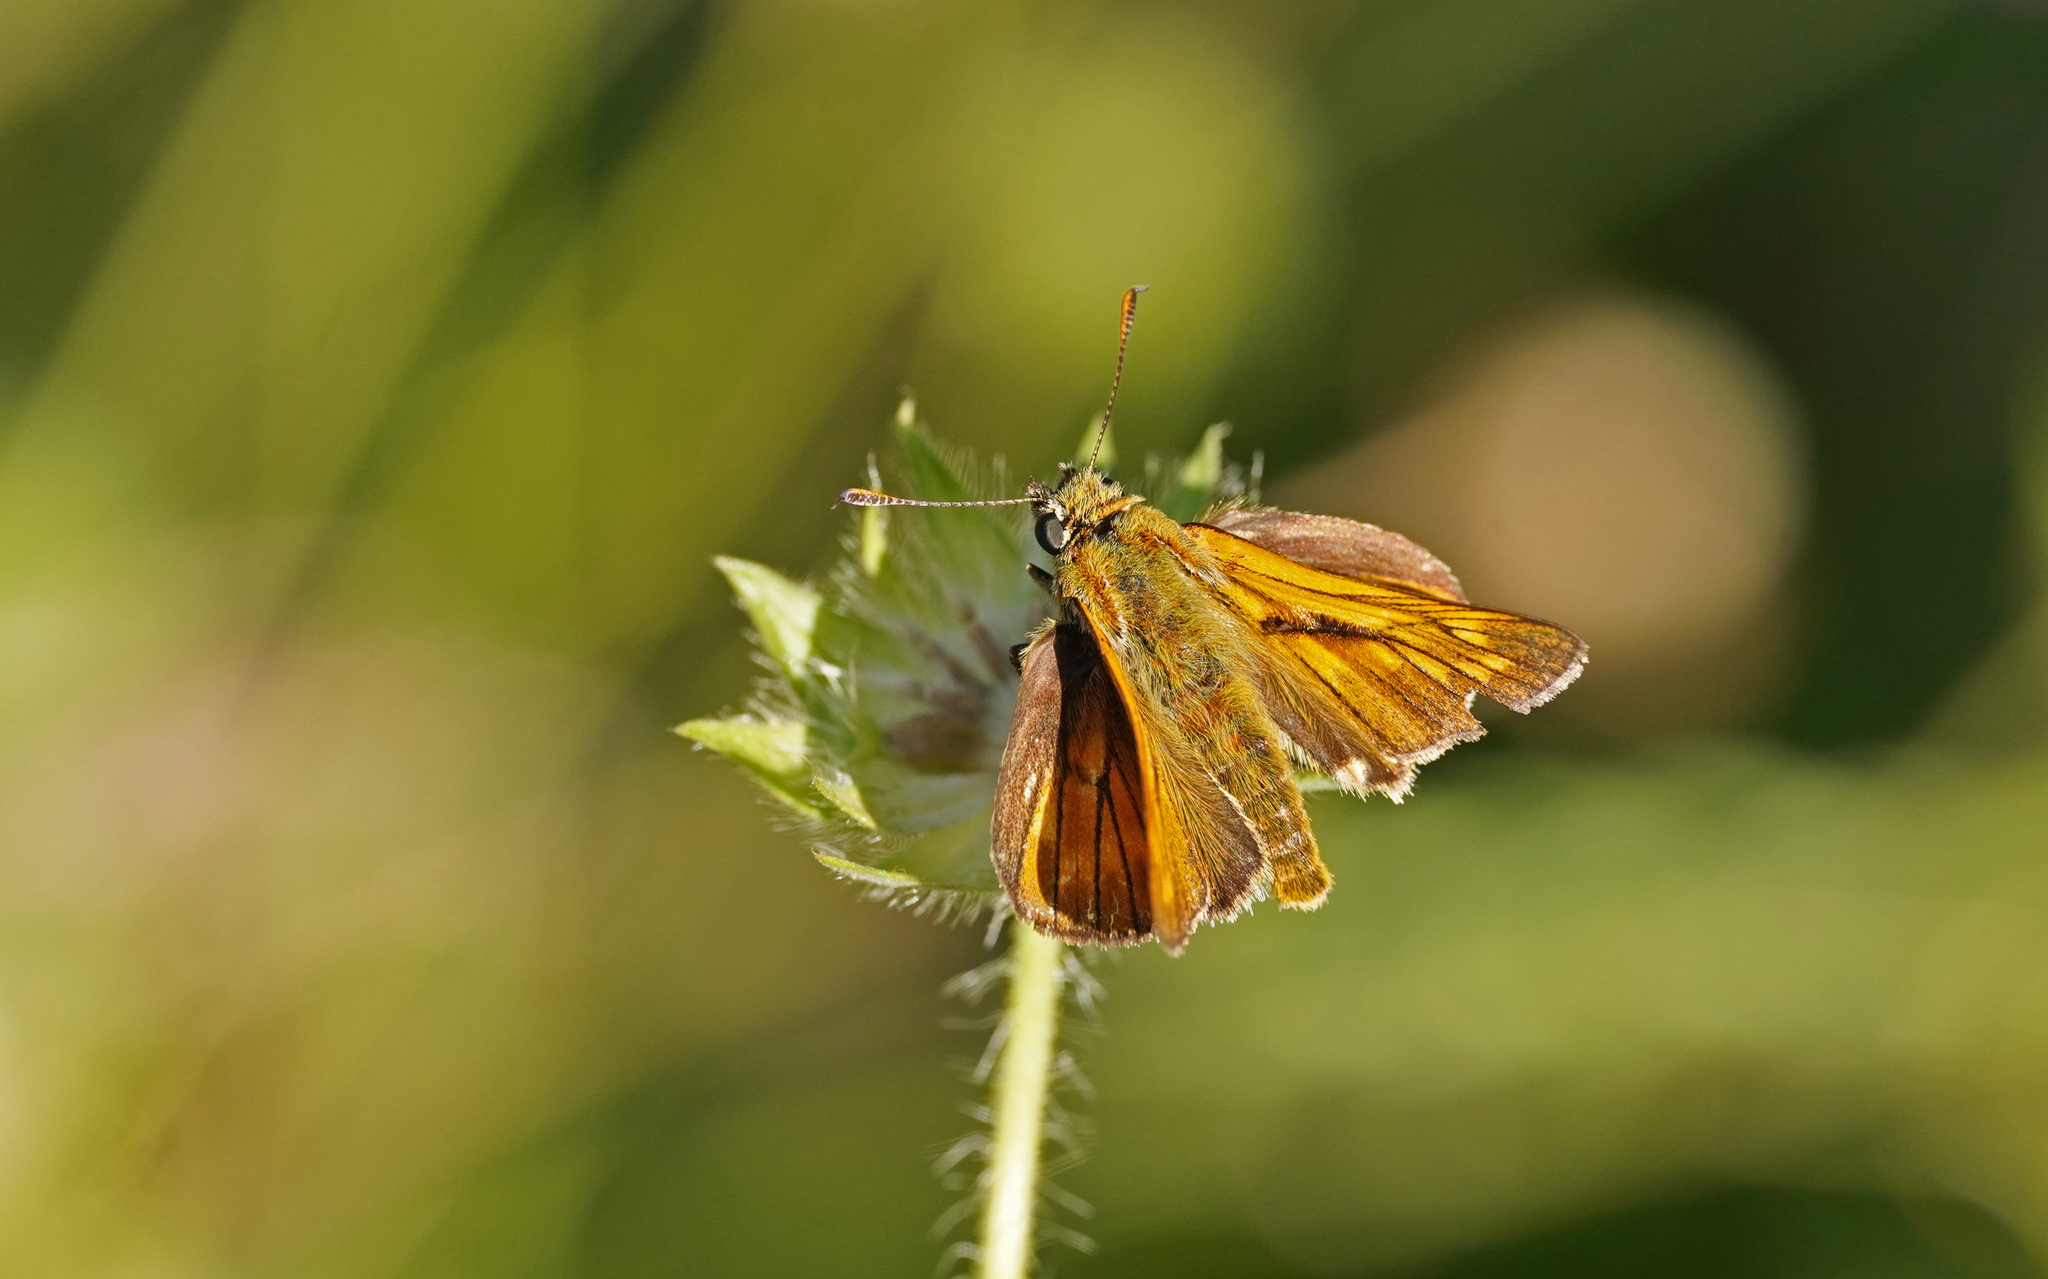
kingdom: Animalia
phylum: Arthropoda
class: Insecta
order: Lepidoptera
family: Hesperiidae
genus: Ochlodes
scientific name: Ochlodes venata
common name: Large skipper
